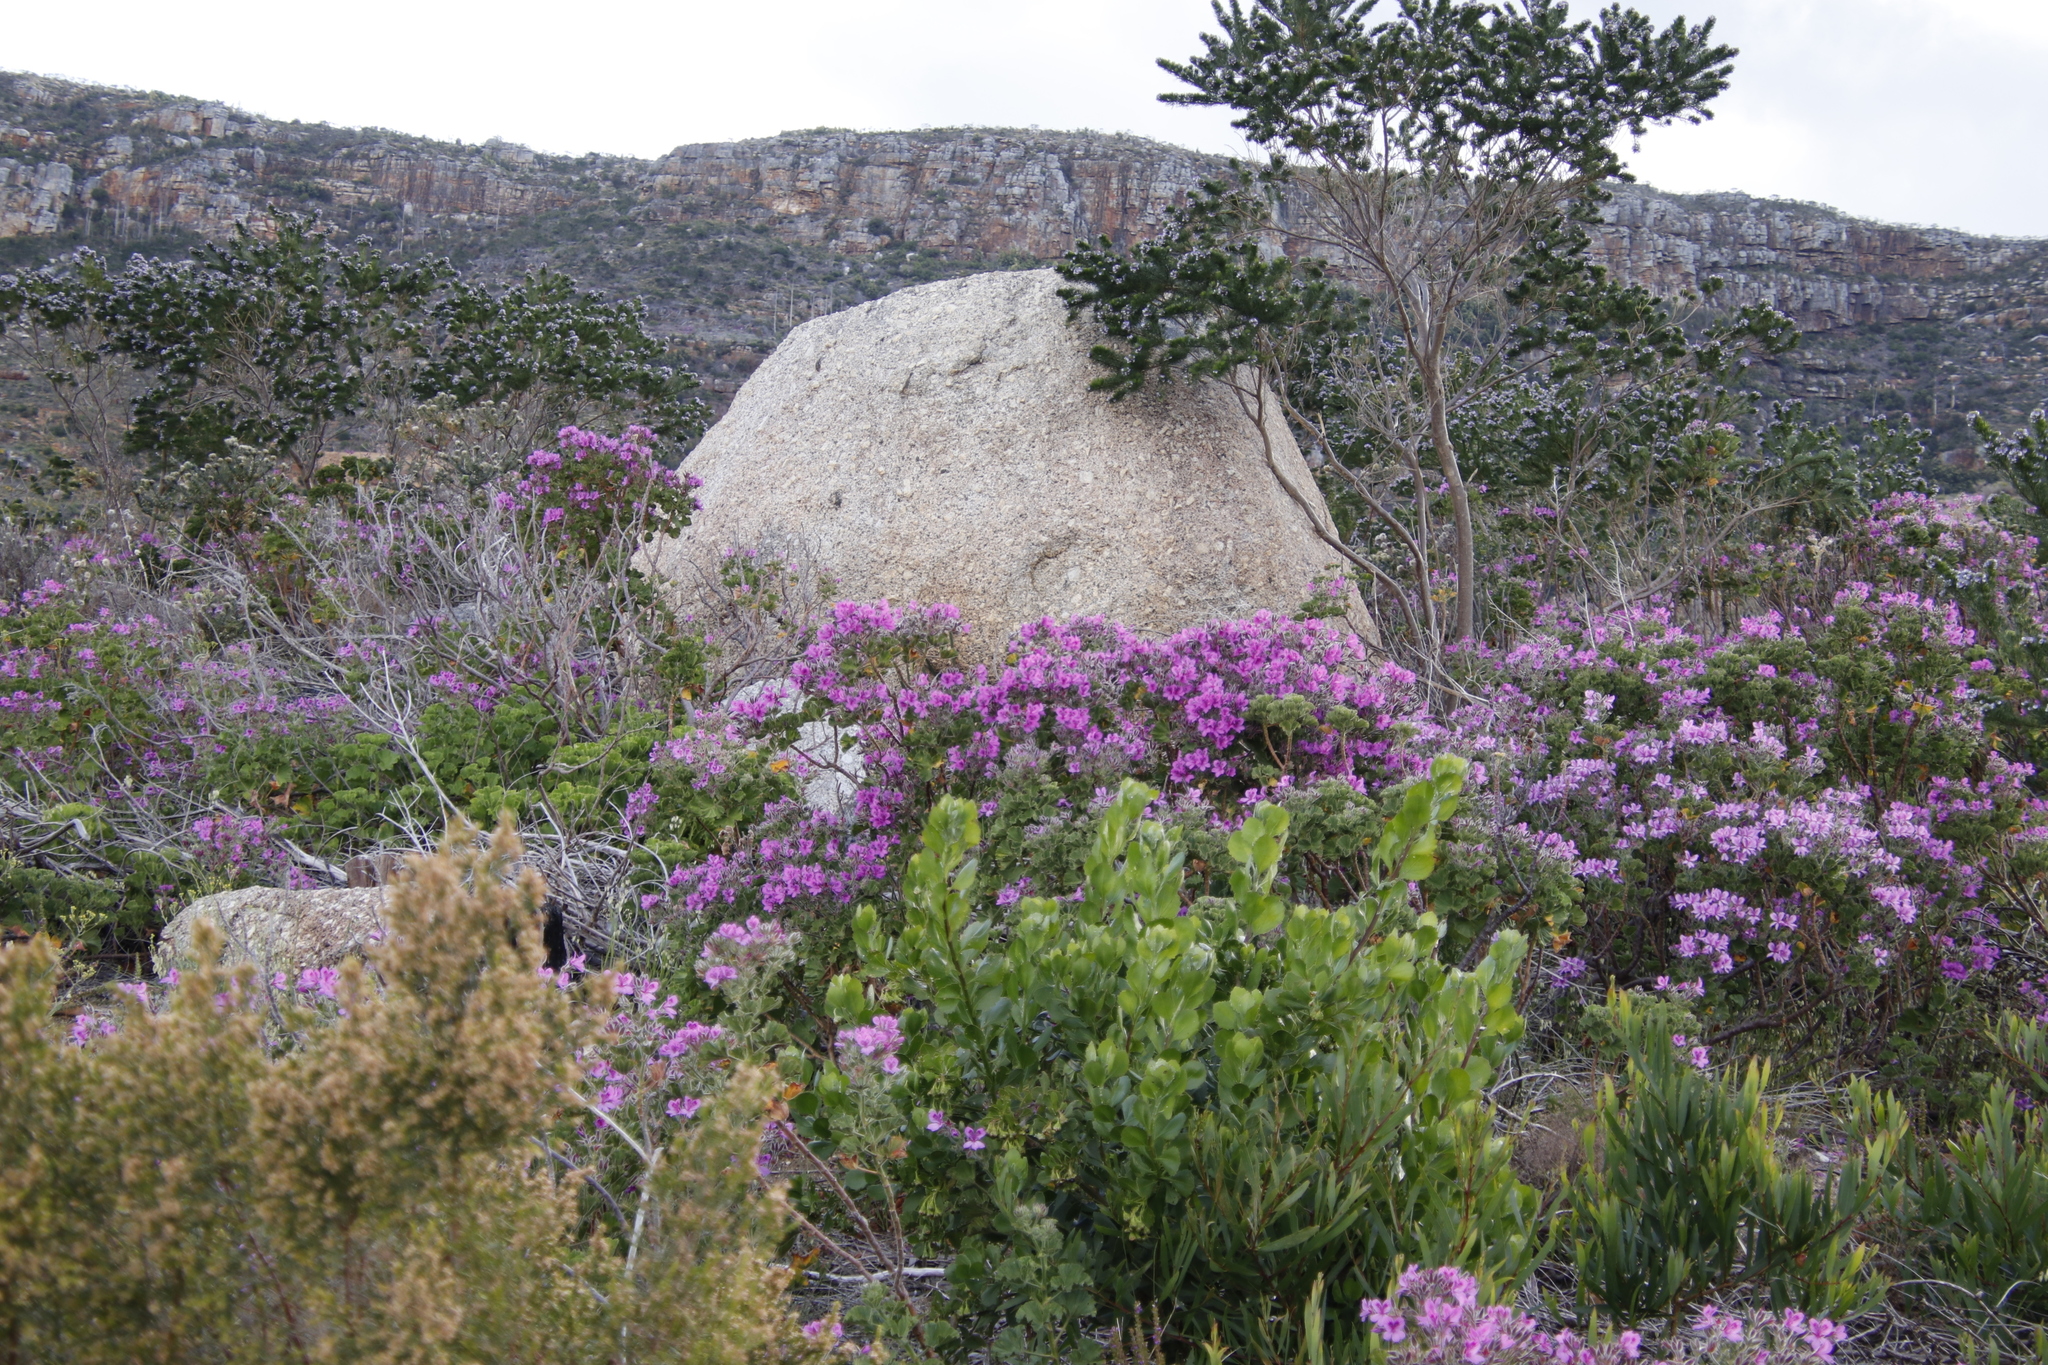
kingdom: Plantae
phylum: Tracheophyta
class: Magnoliopsida
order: Geraniales
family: Geraniaceae
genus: Pelargonium
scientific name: Pelargonium cucullatum
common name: Tree pelargonium
